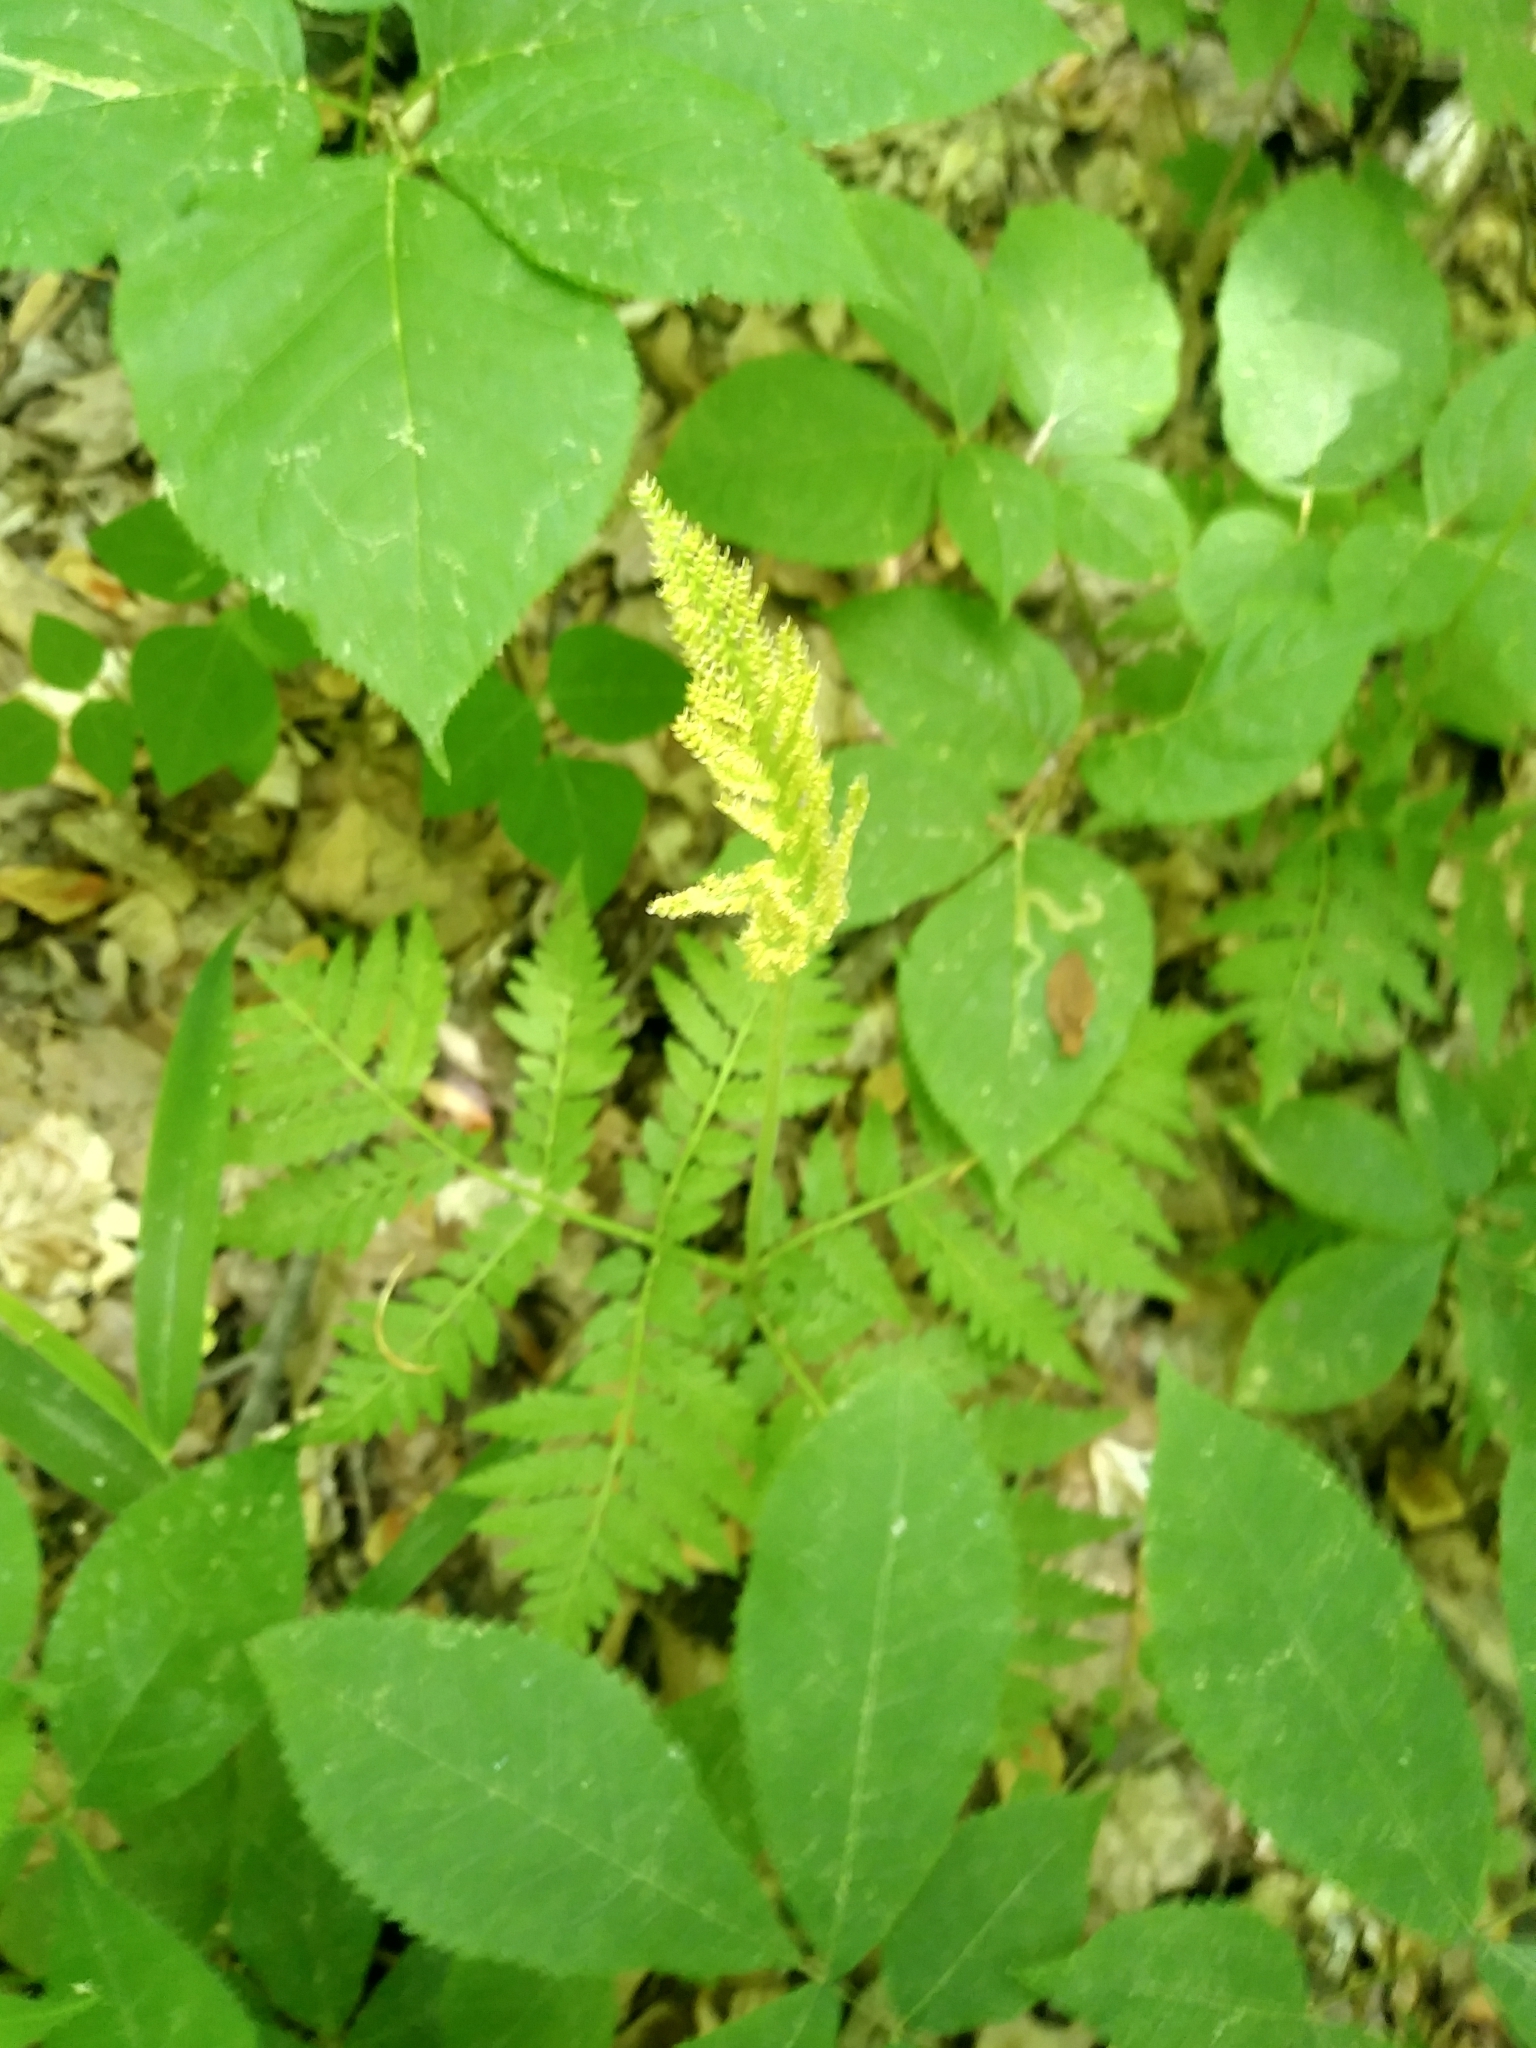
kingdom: Plantae
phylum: Tracheophyta
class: Polypodiopsida
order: Ophioglossales
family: Ophioglossaceae
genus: Botrypus
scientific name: Botrypus virginianus
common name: Common grapefern
